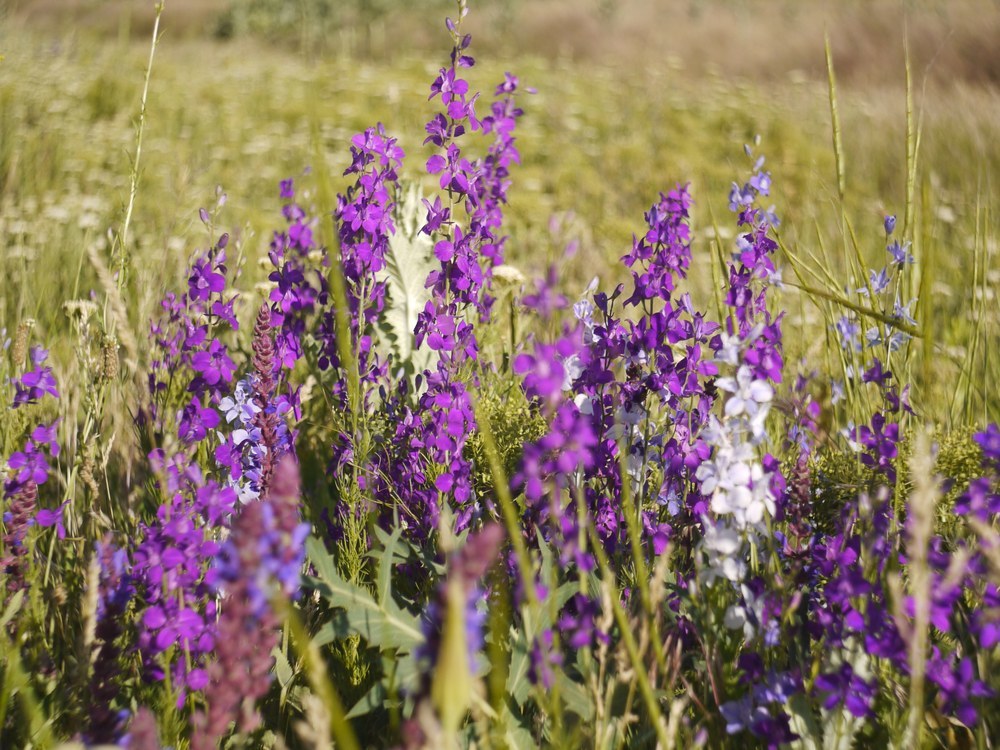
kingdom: Plantae
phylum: Tracheophyta
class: Magnoliopsida
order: Ranunculales
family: Ranunculaceae
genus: Delphinium
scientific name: Delphinium ajacis
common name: Doubtful knight's-spur
